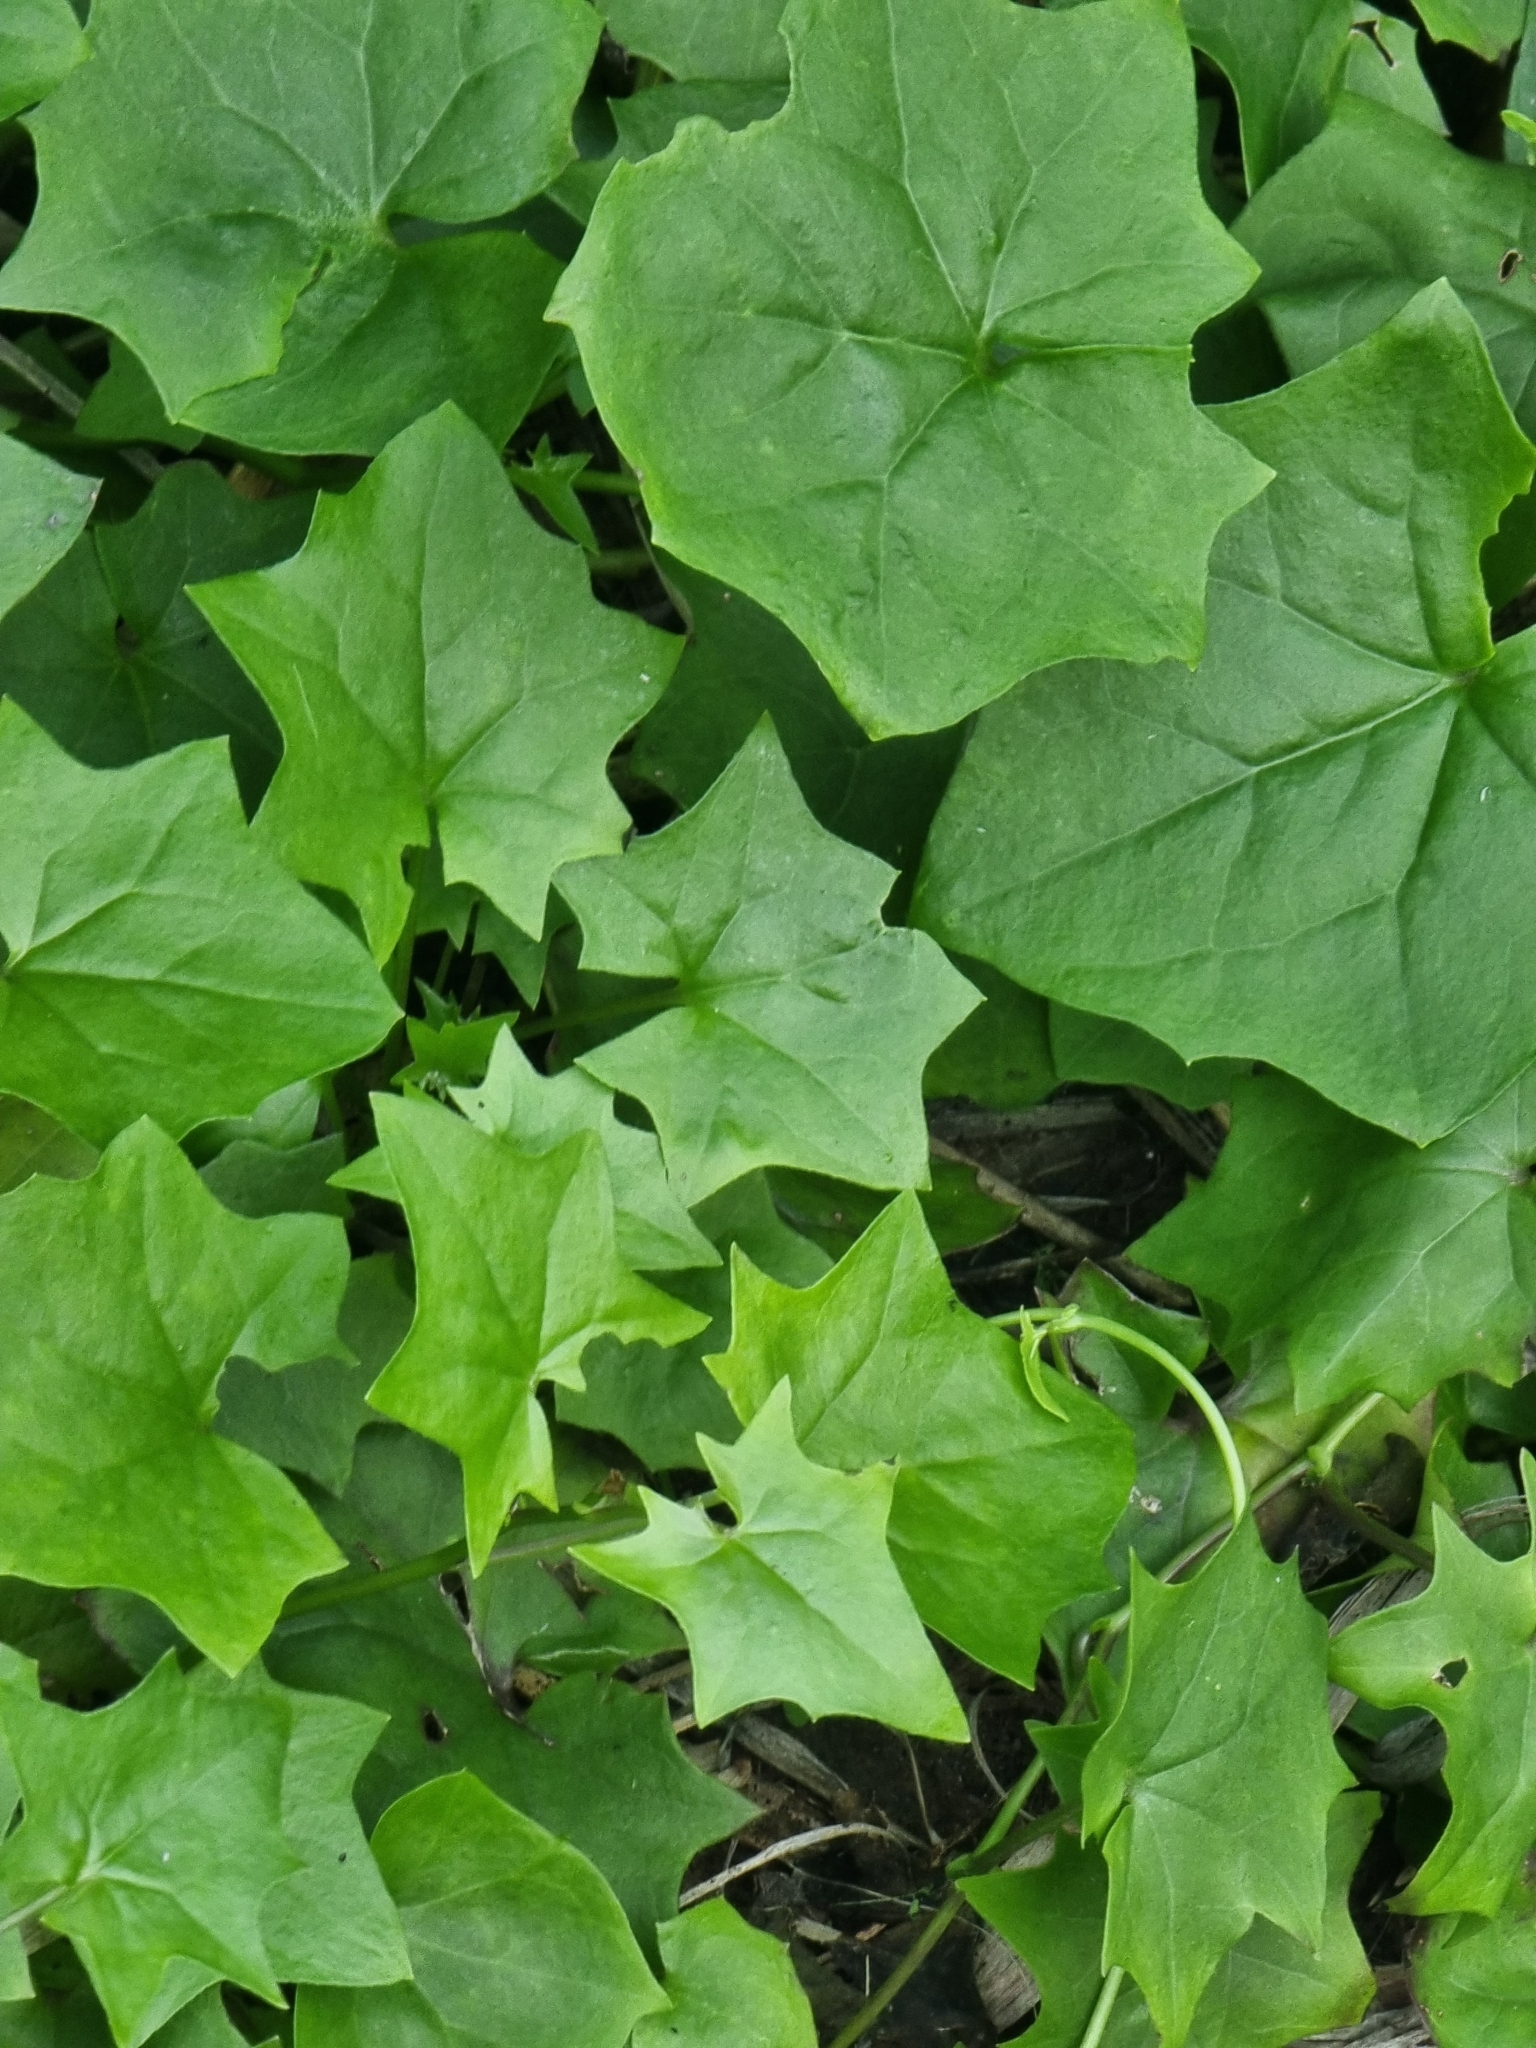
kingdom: Plantae
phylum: Tracheophyta
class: Magnoliopsida
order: Asterales
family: Asteraceae
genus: Delairea
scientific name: Delairea odorata
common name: Cape-ivy
